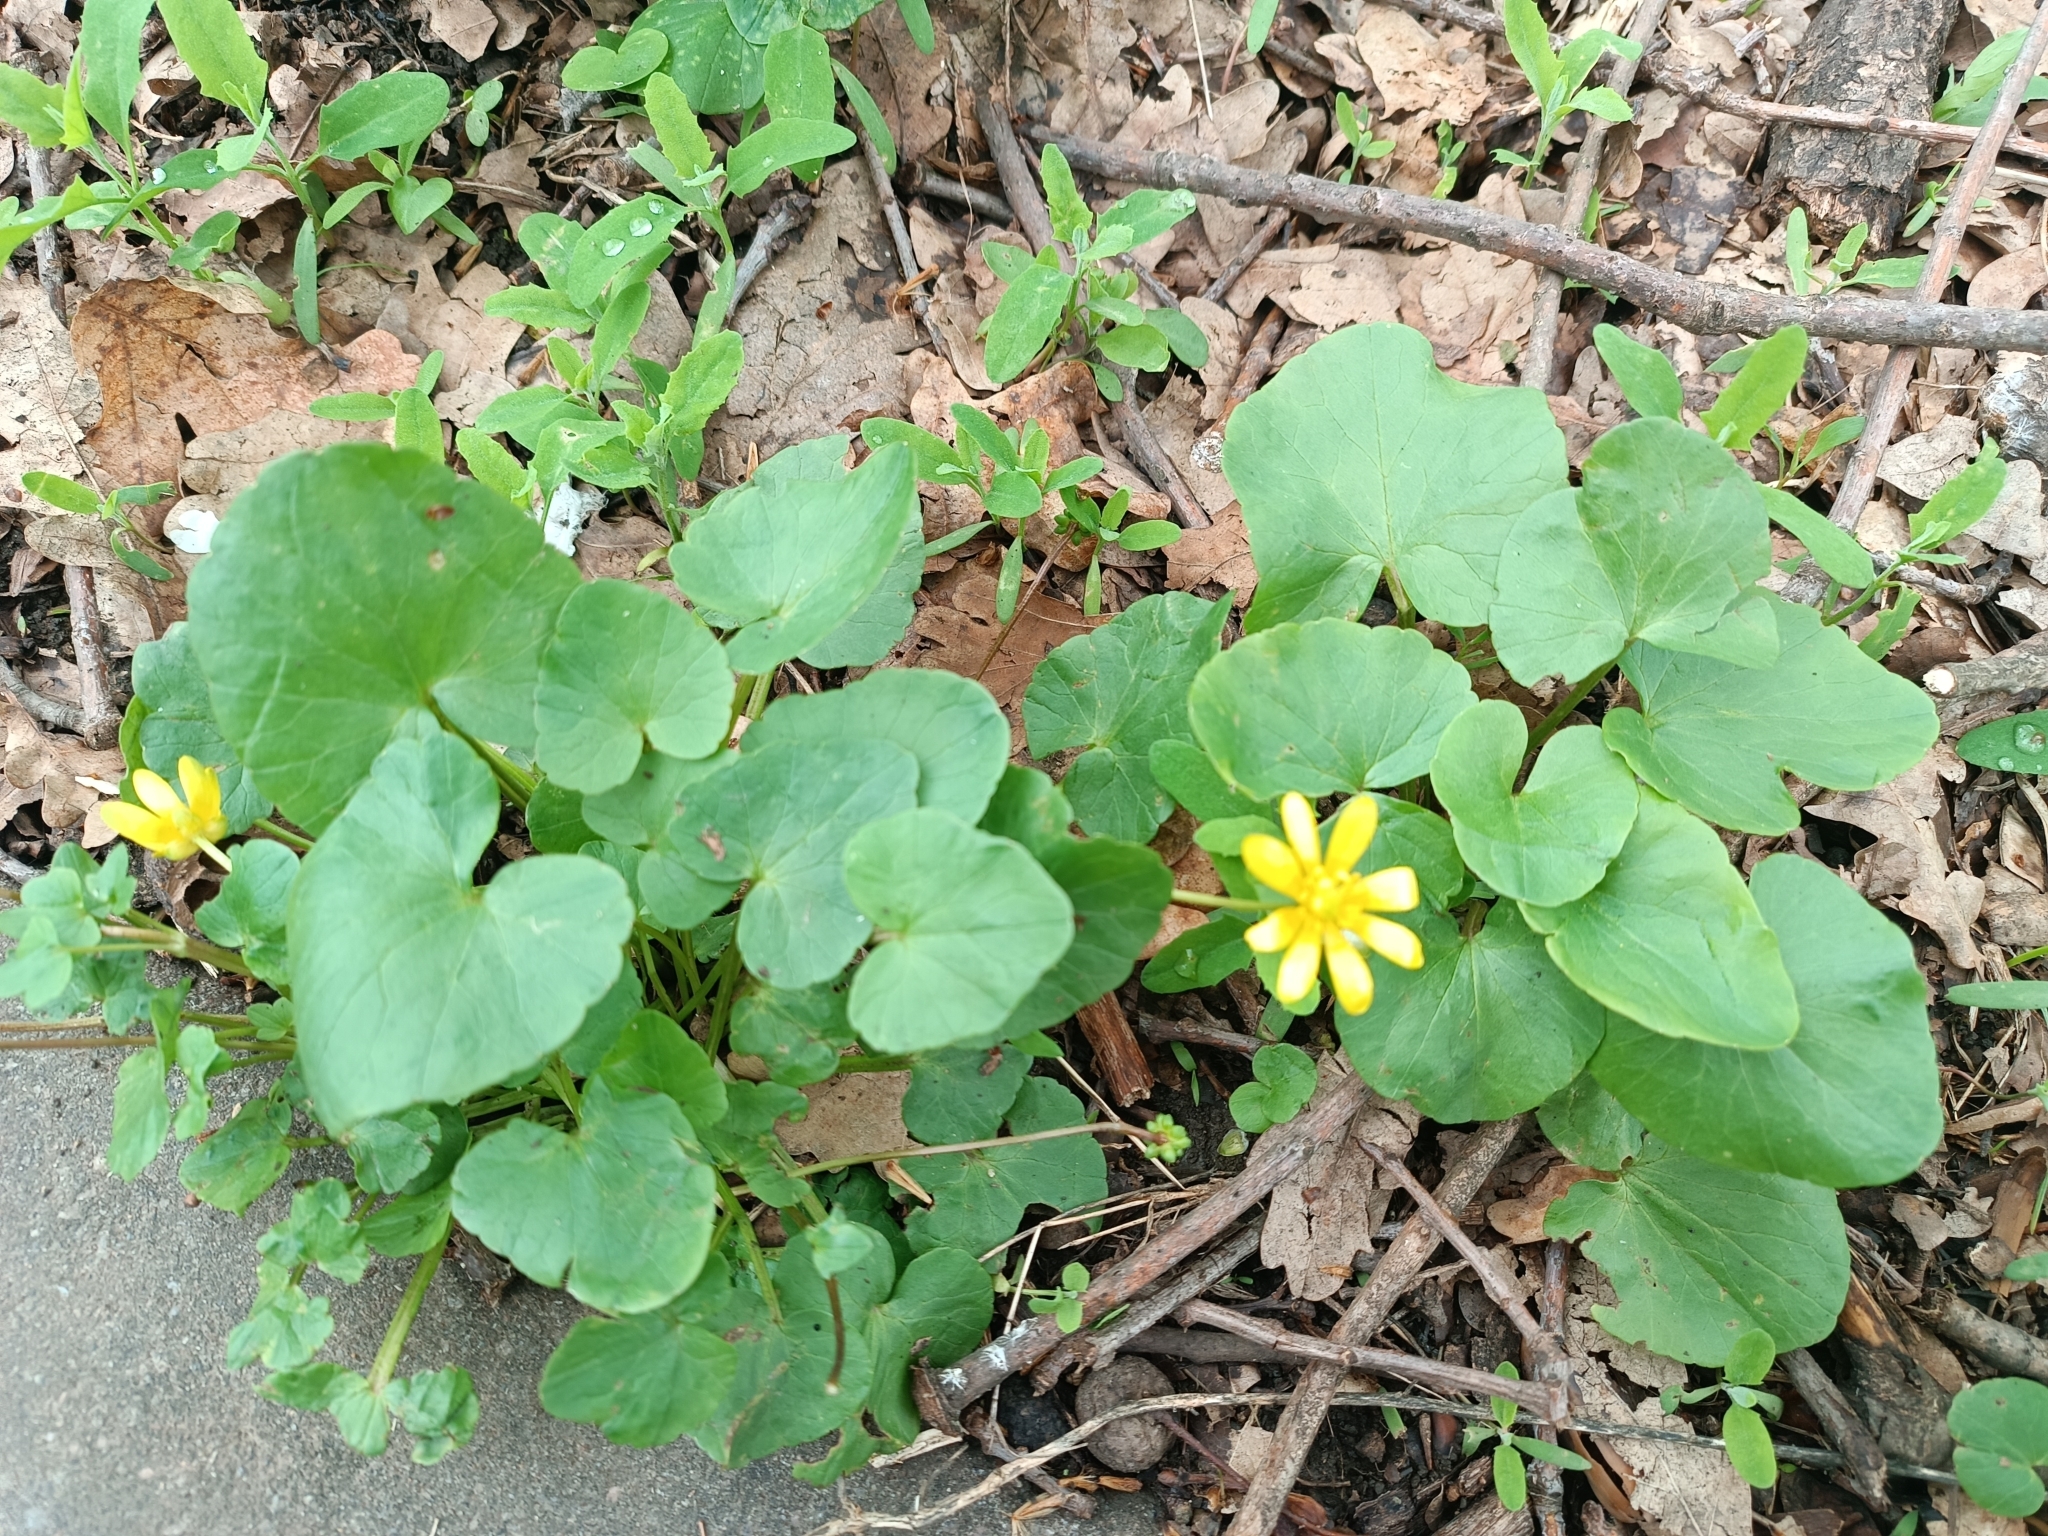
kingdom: Plantae
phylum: Tracheophyta
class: Magnoliopsida
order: Ranunculales
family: Ranunculaceae
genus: Ficaria
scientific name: Ficaria verna
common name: Lesser celandine
